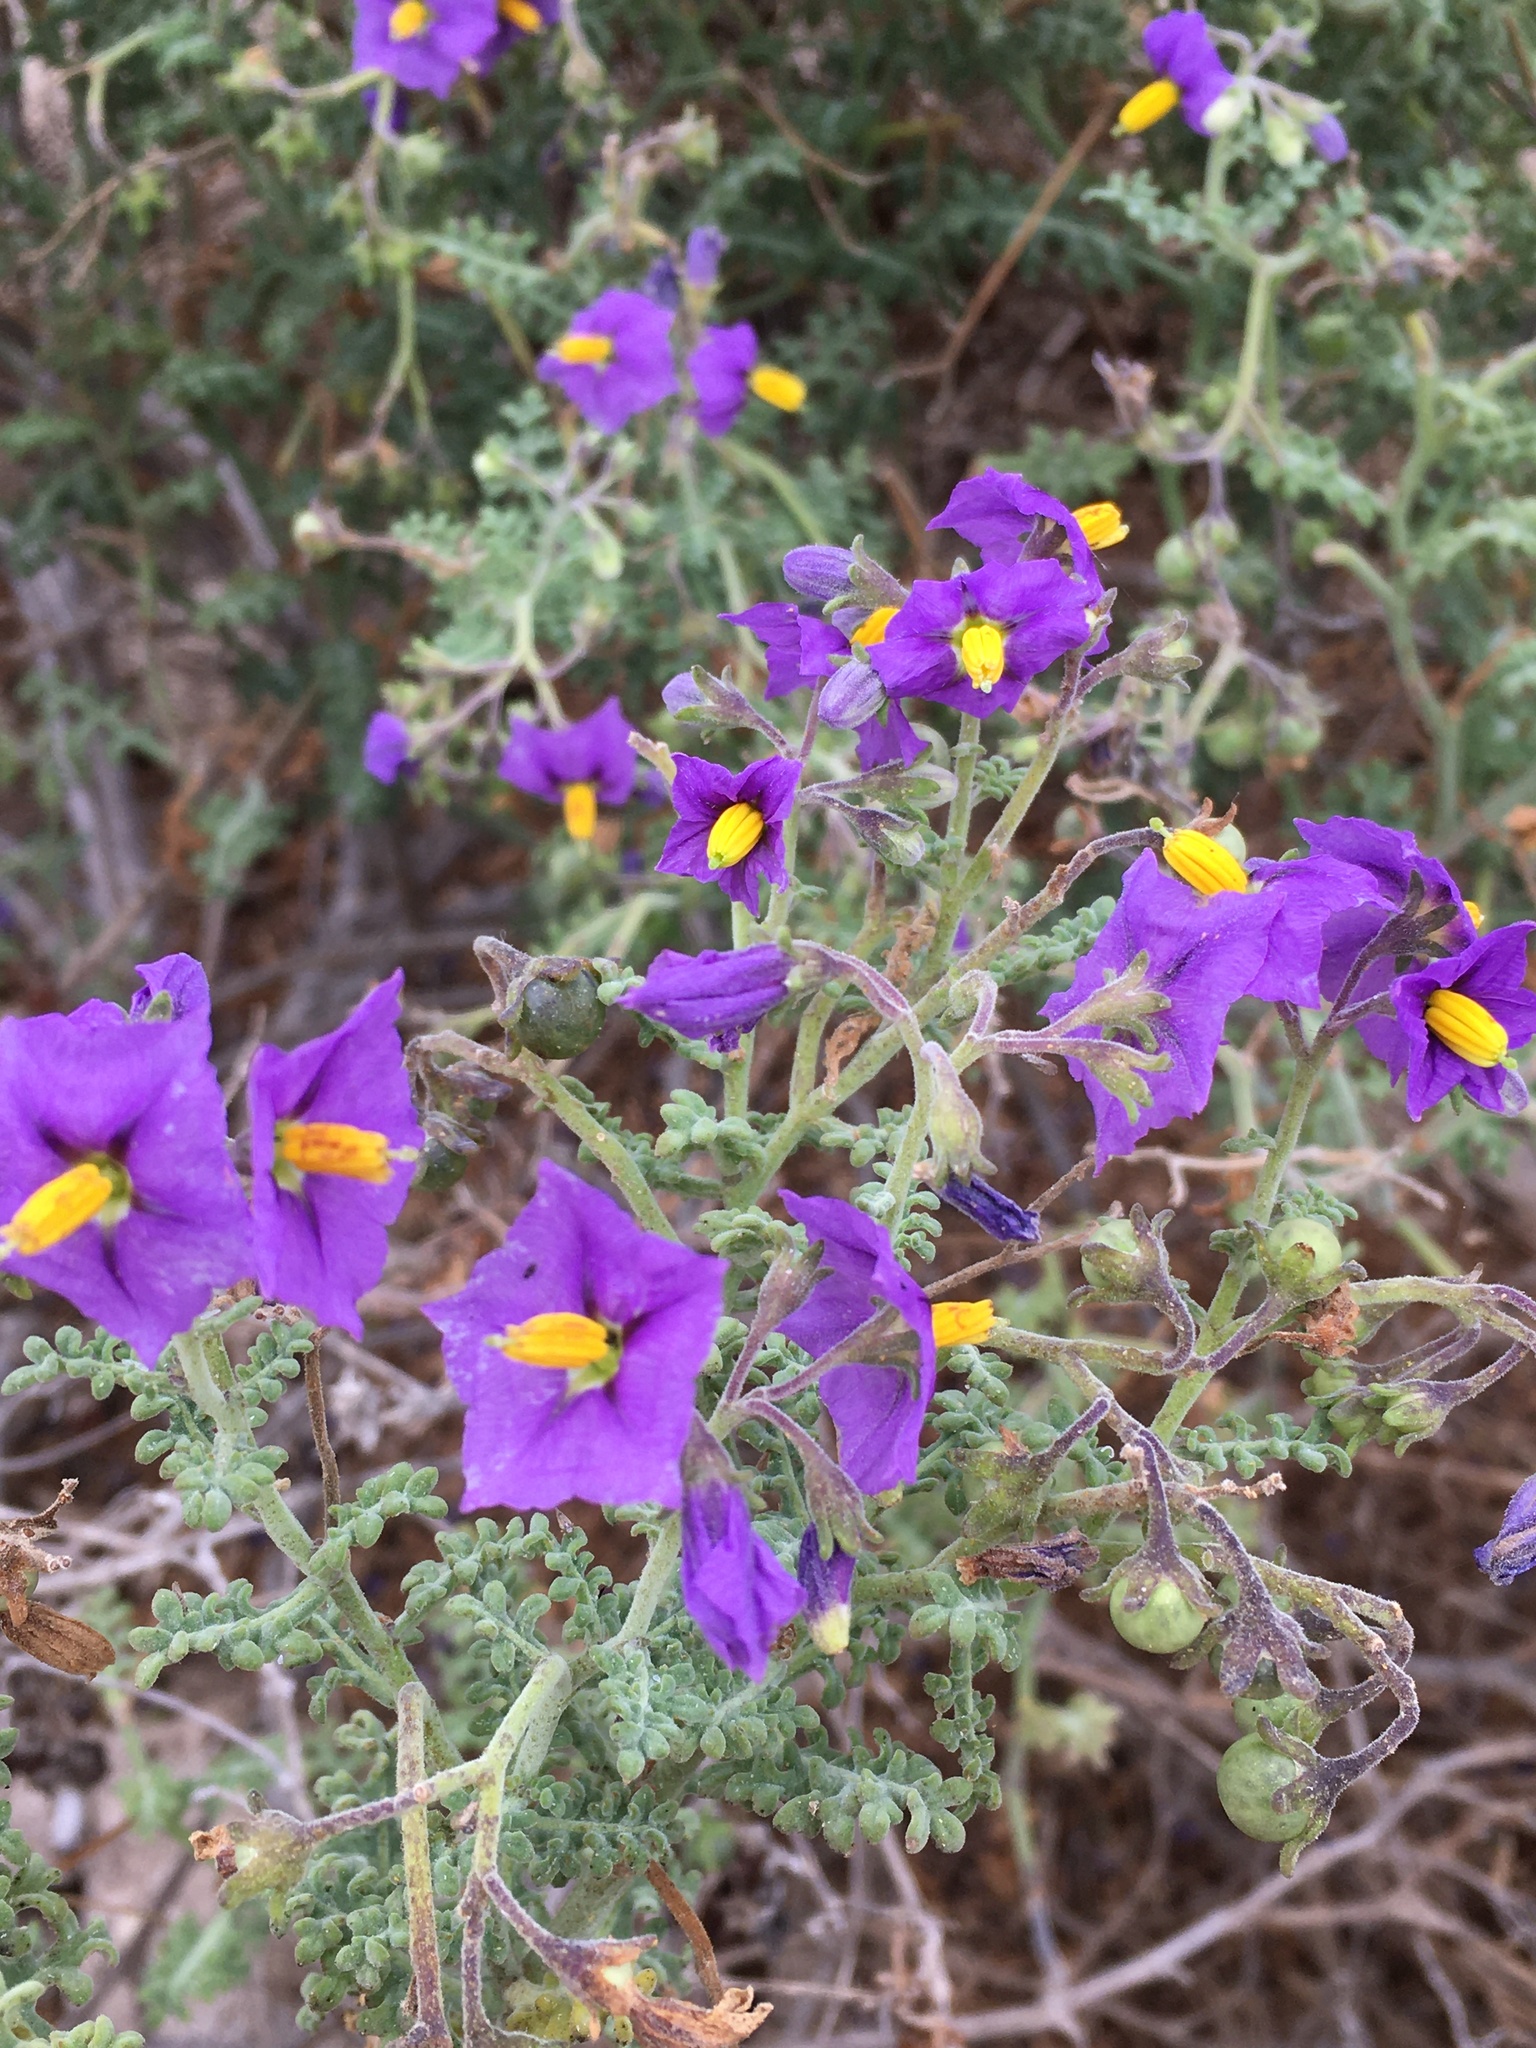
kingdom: Plantae
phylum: Tracheophyta
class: Magnoliopsida
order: Solanales
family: Solanaceae
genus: Solanum
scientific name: Solanum remyanum
